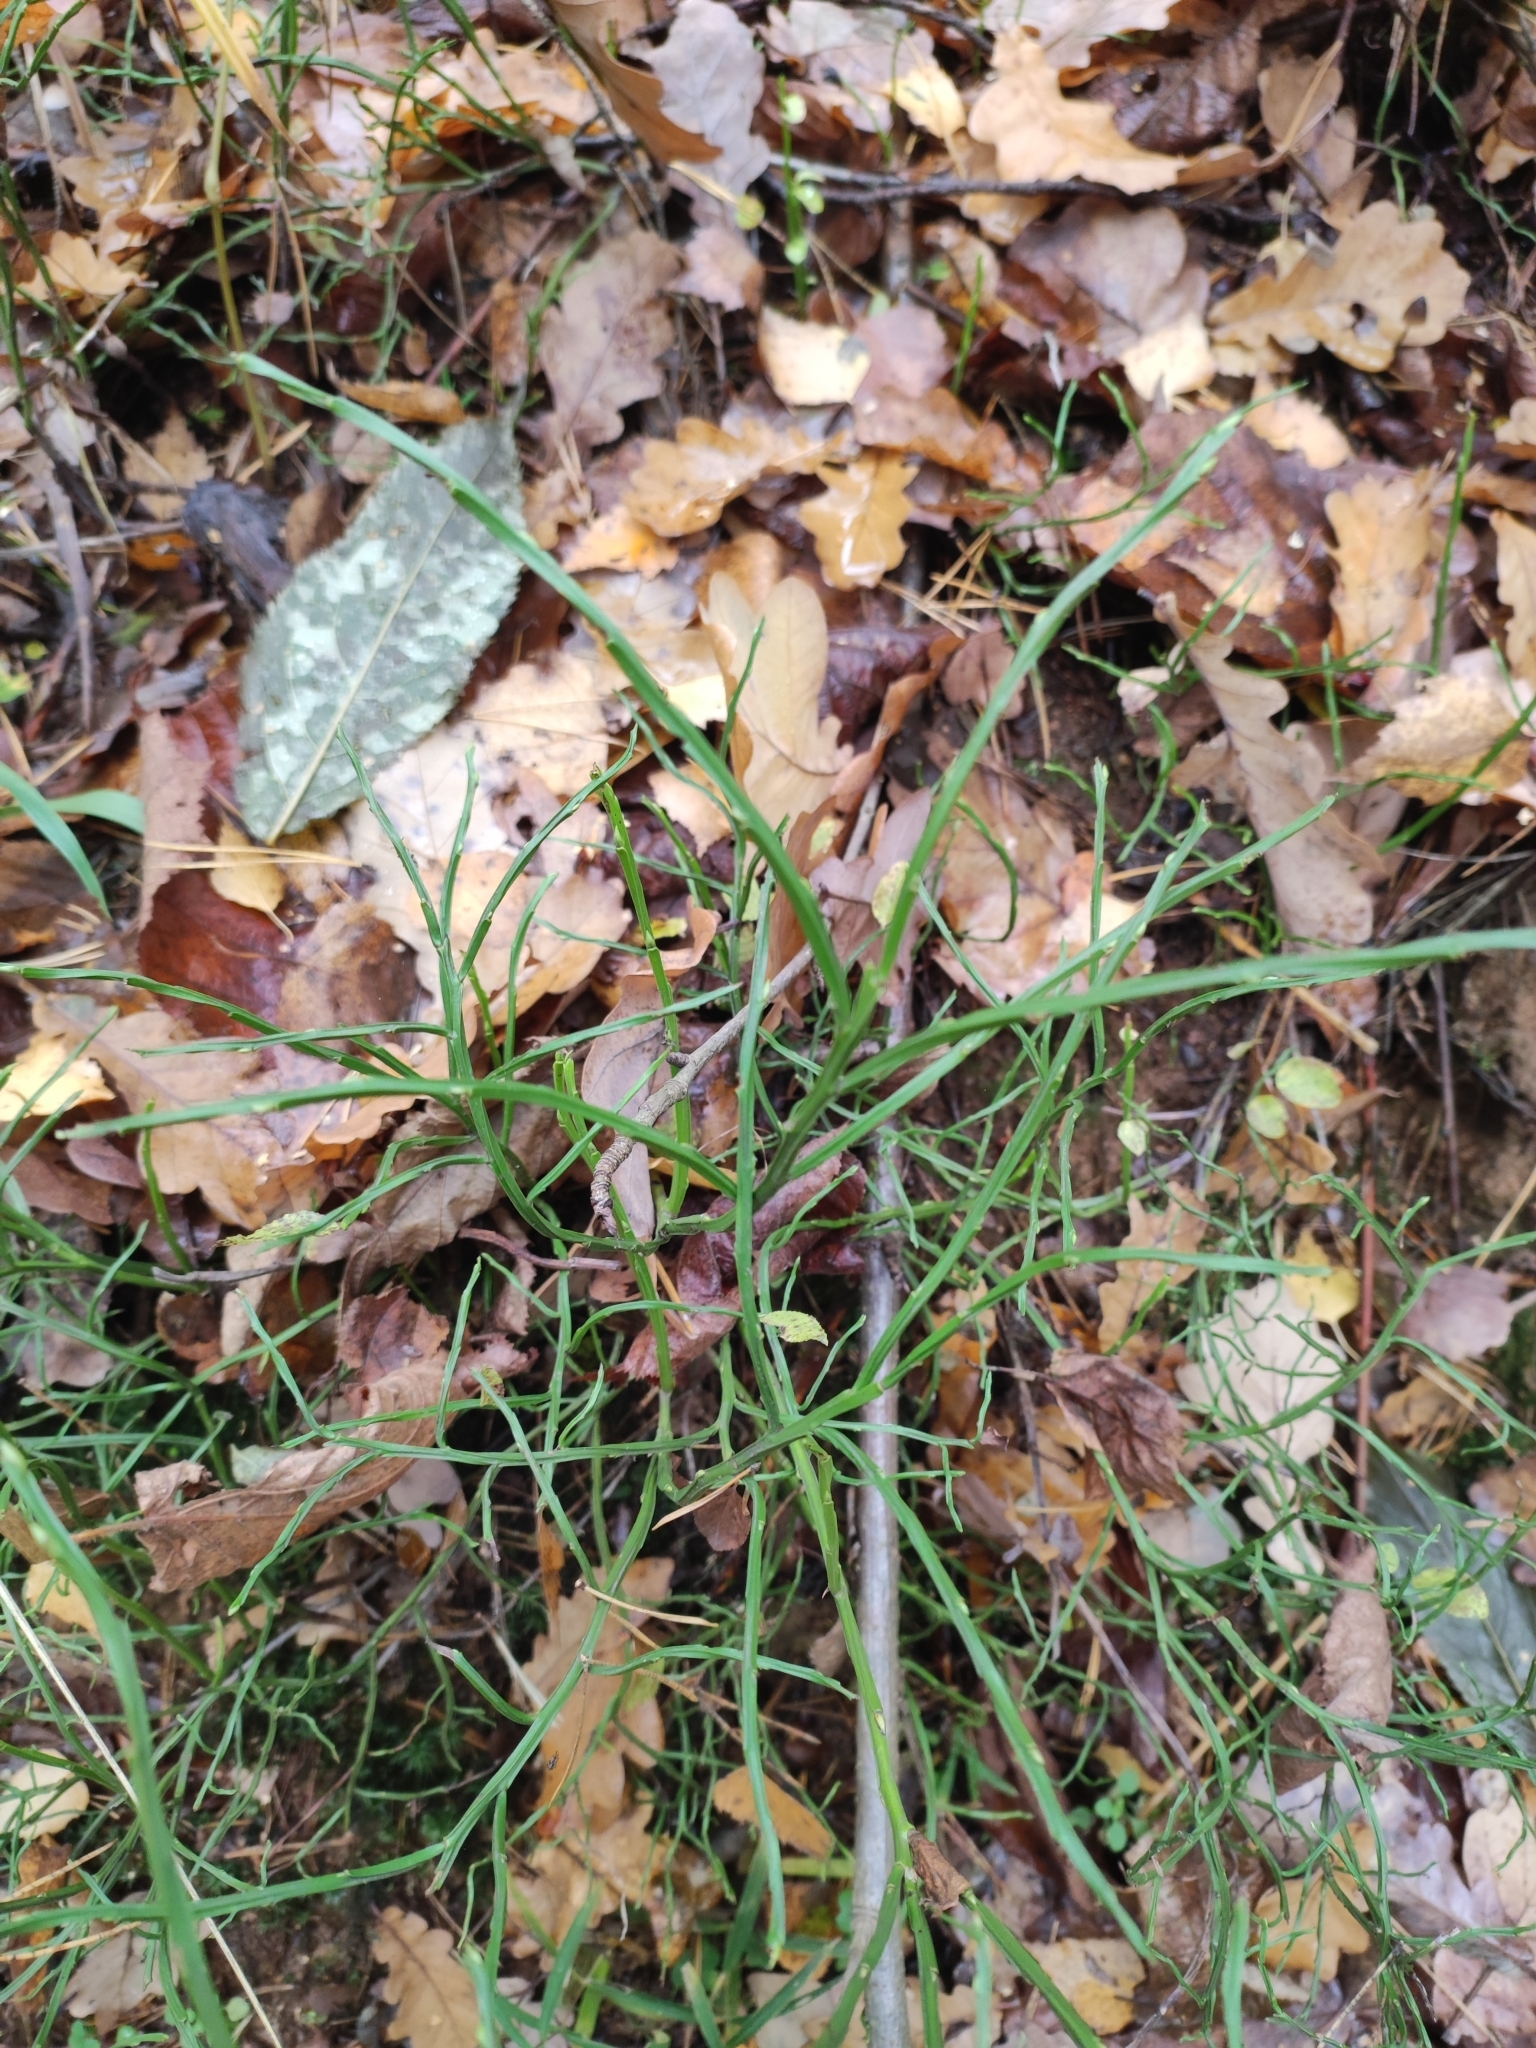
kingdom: Plantae
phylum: Tracheophyta
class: Magnoliopsida
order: Ericales
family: Ericaceae
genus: Vaccinium
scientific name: Vaccinium myrtillus
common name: Bilberry
